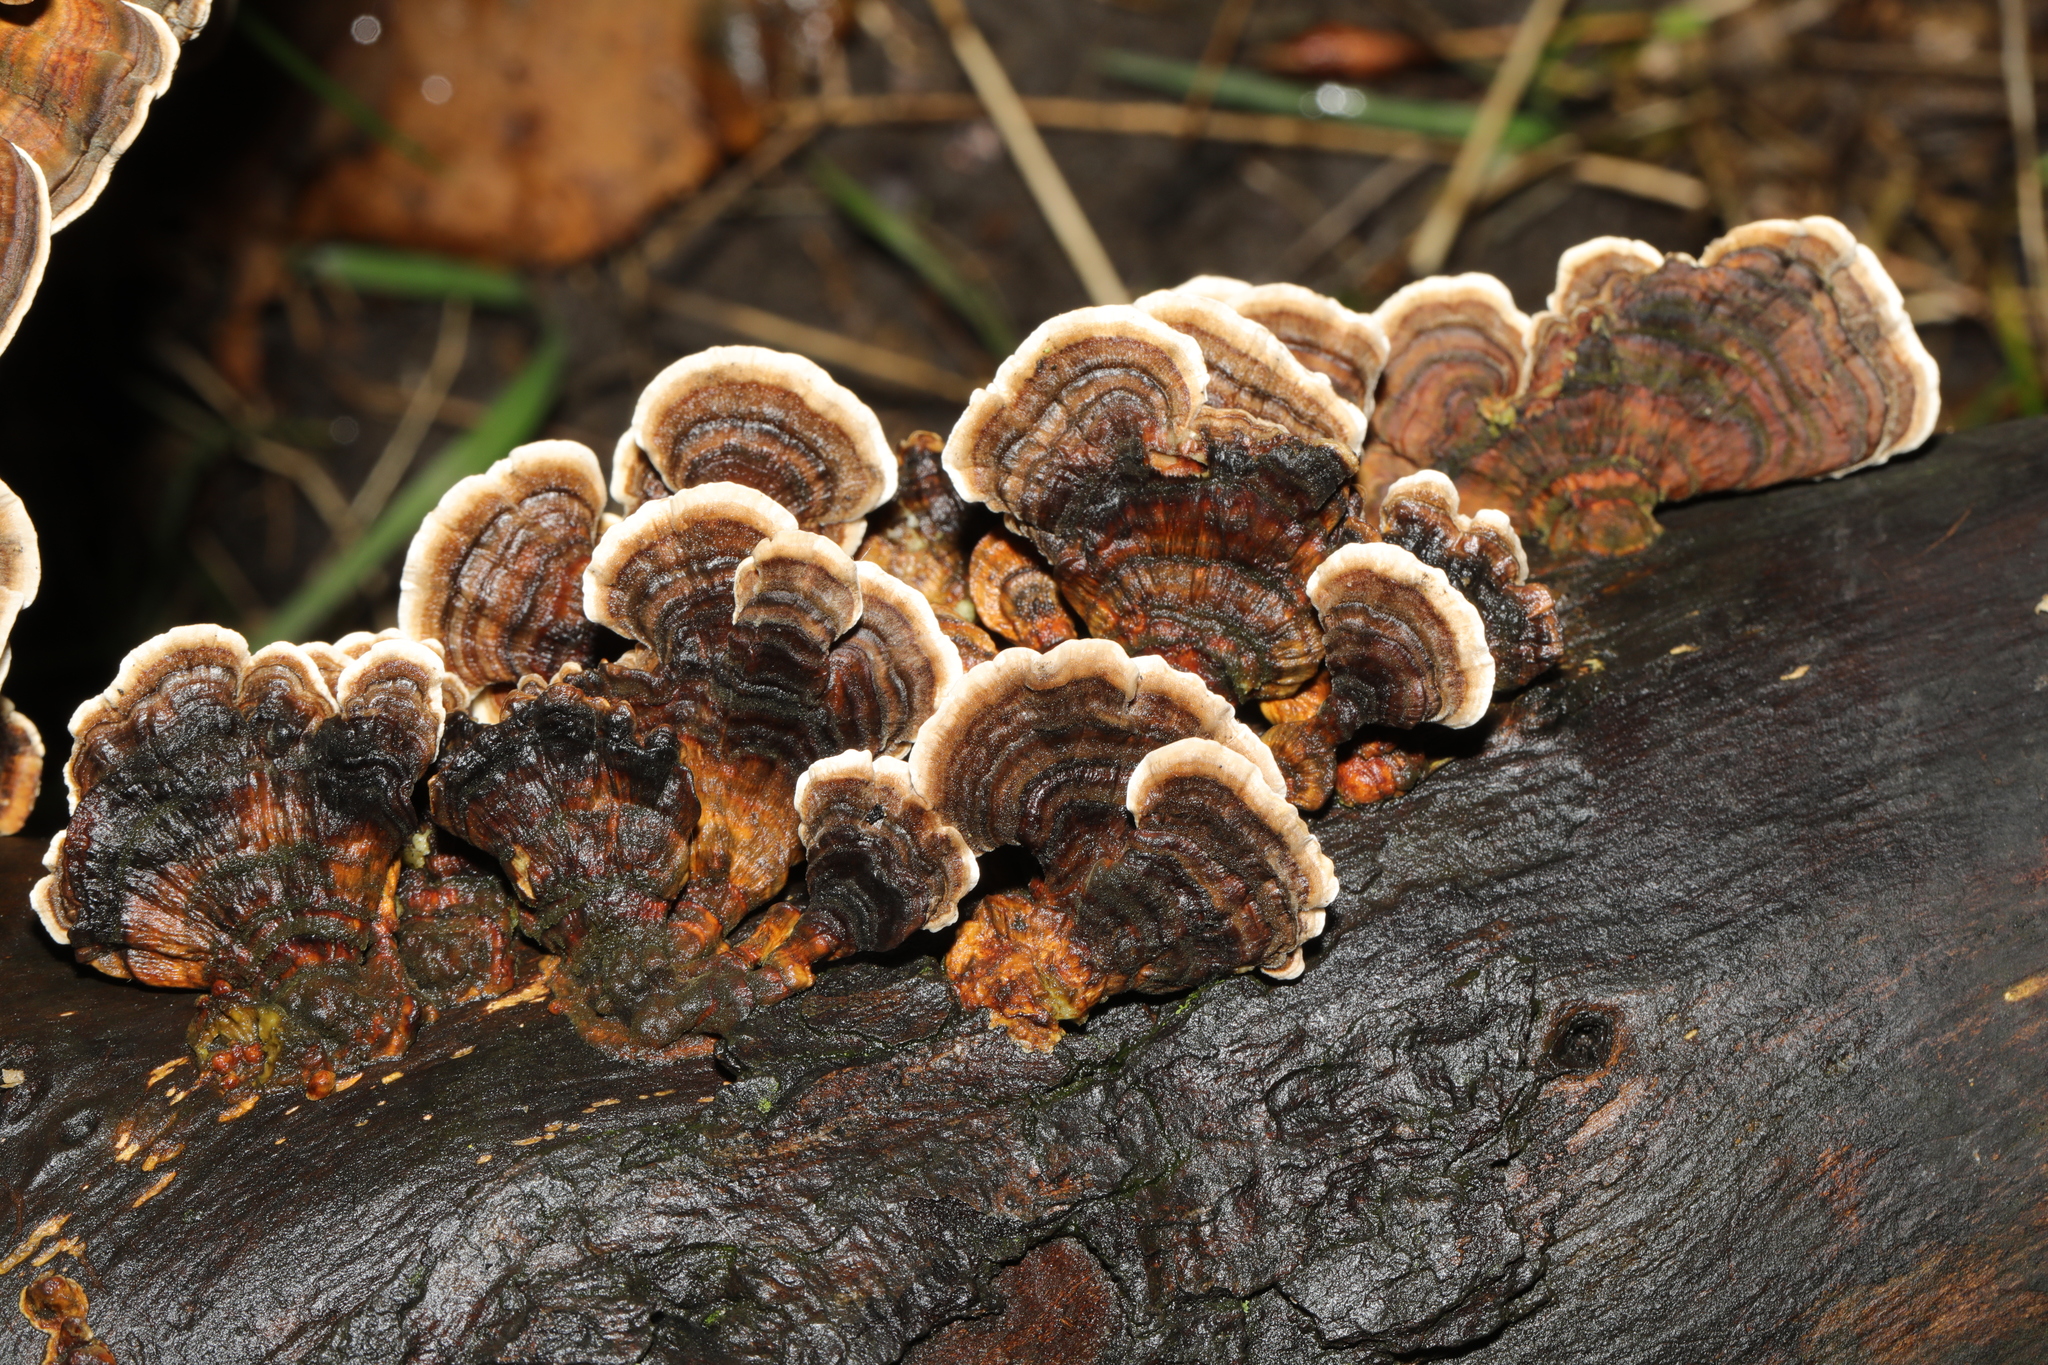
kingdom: Fungi
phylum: Basidiomycota
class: Agaricomycetes
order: Polyporales
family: Polyporaceae
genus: Trametes
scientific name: Trametes versicolor
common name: Turkeytail
